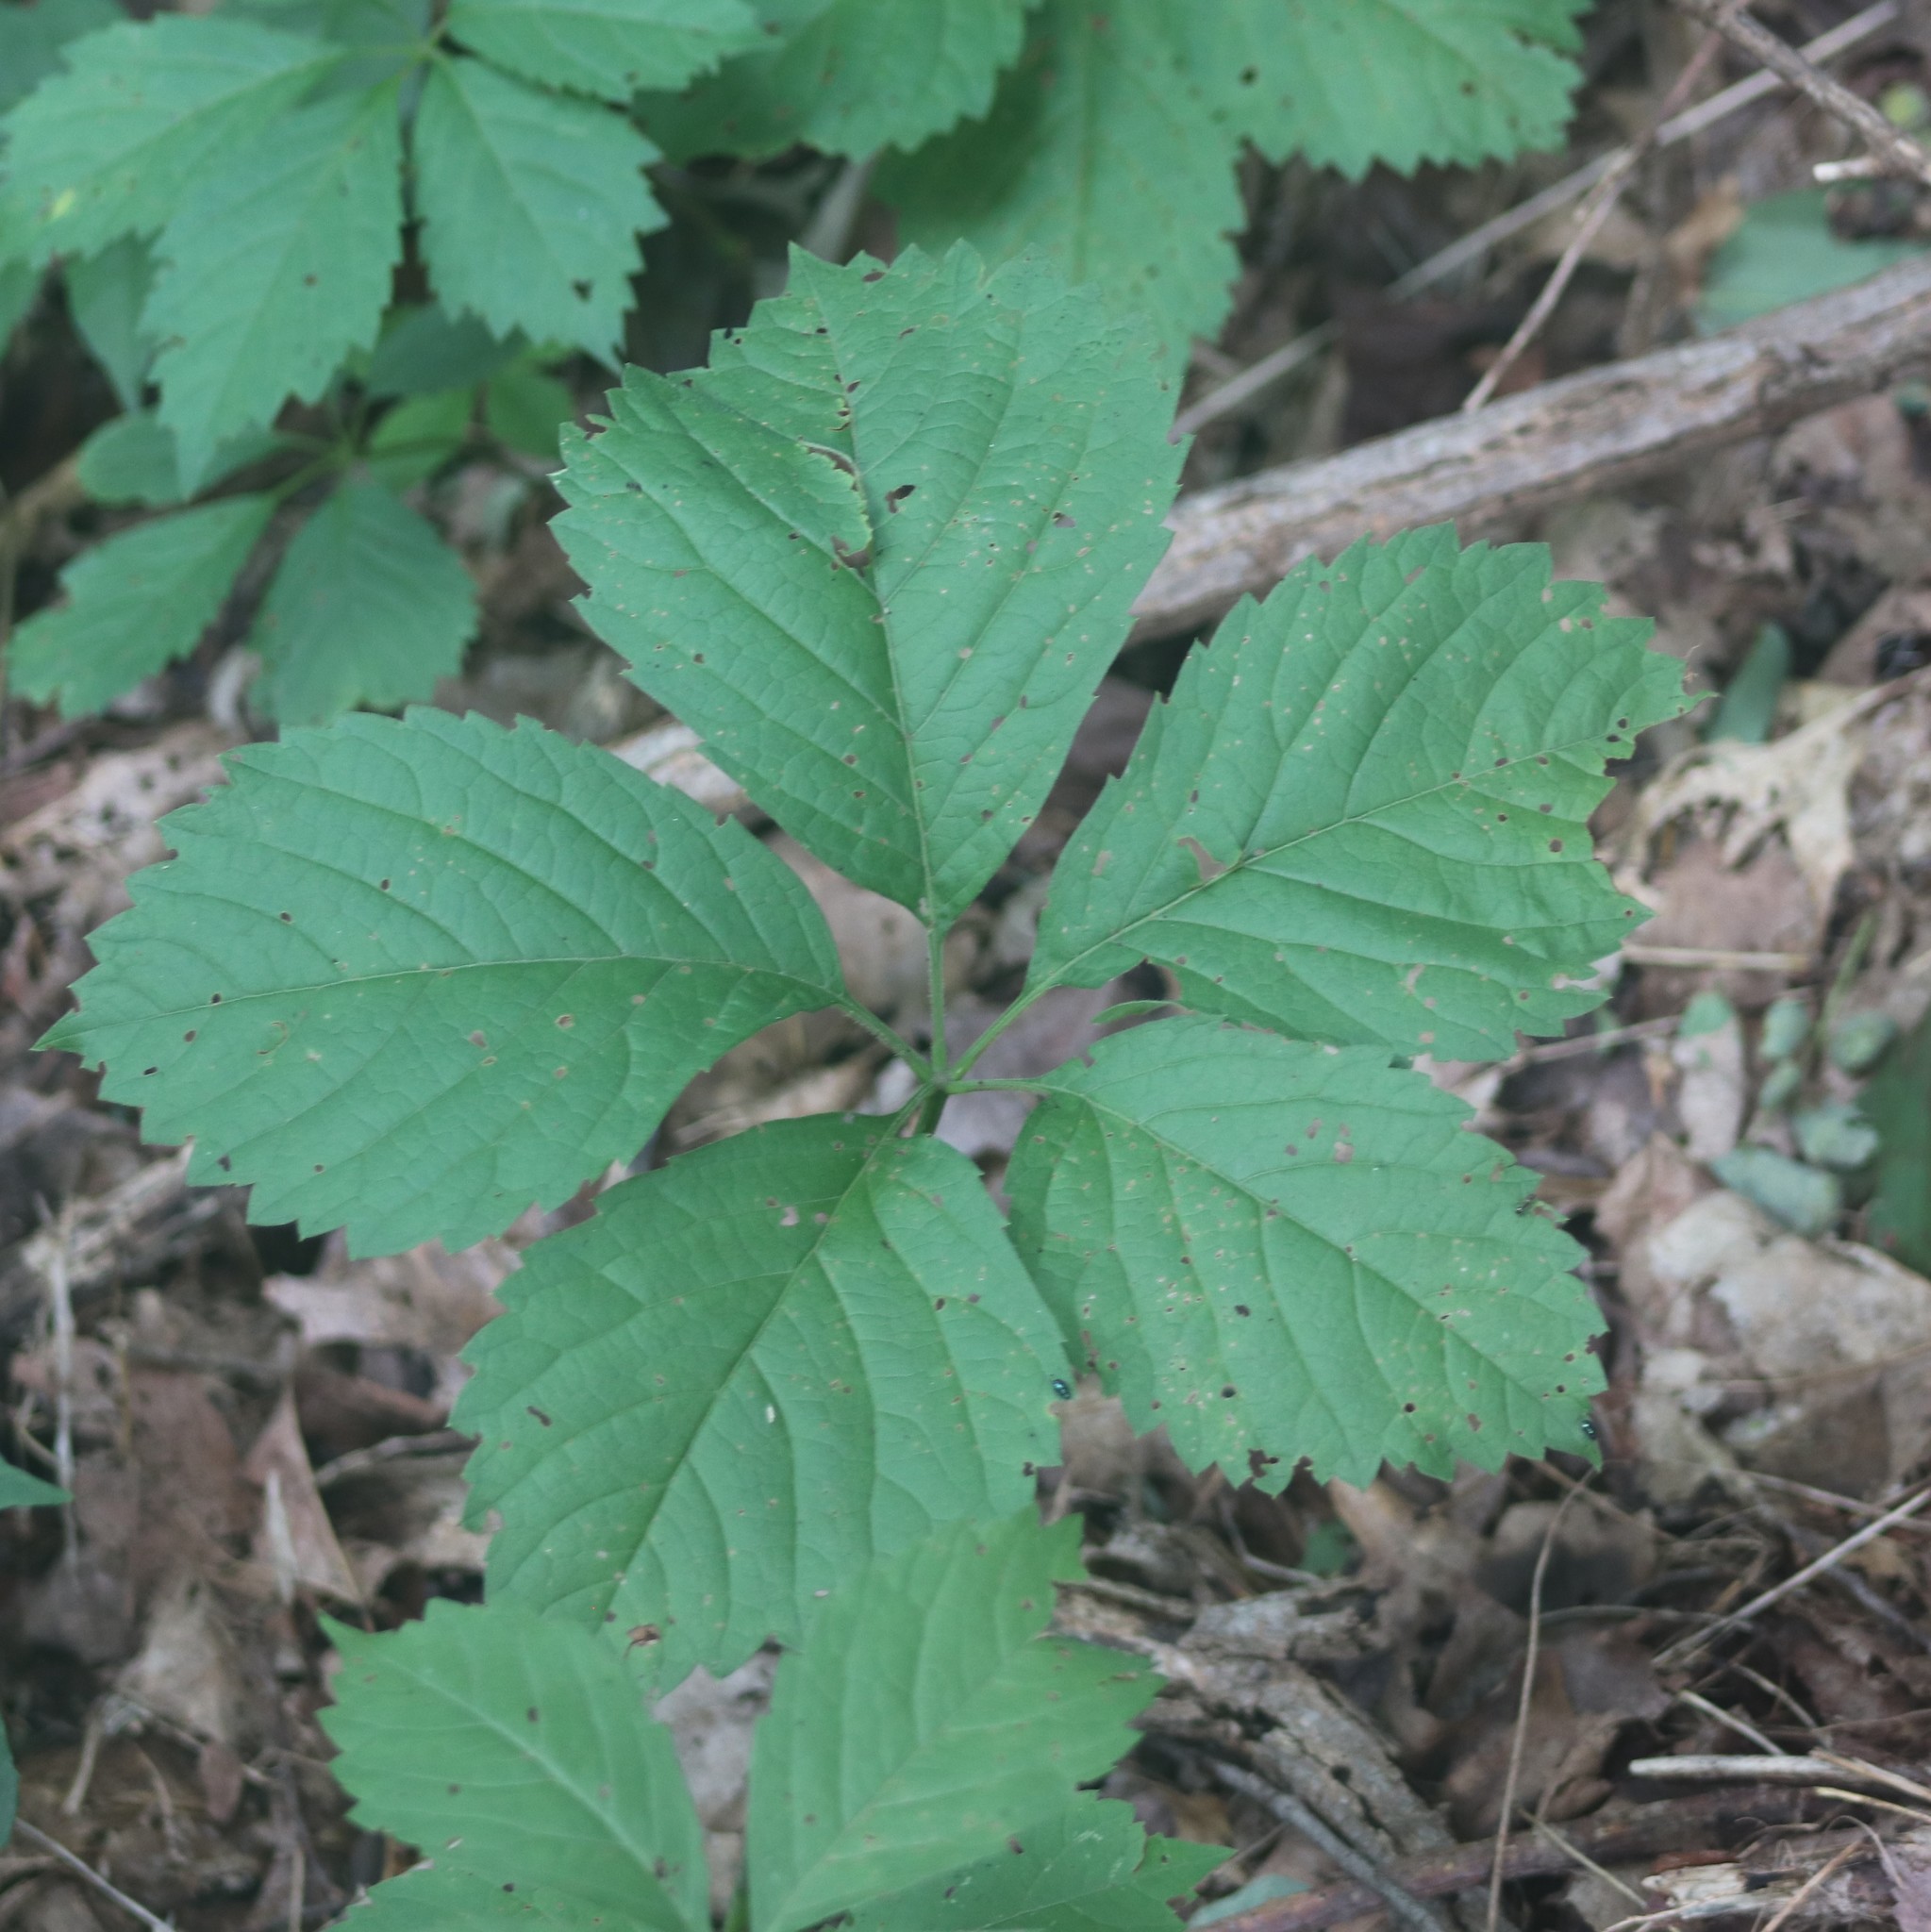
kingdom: Plantae
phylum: Tracheophyta
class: Magnoliopsida
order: Vitales
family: Vitaceae
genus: Parthenocissus
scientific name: Parthenocissus inserta
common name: False virginia-creeper
